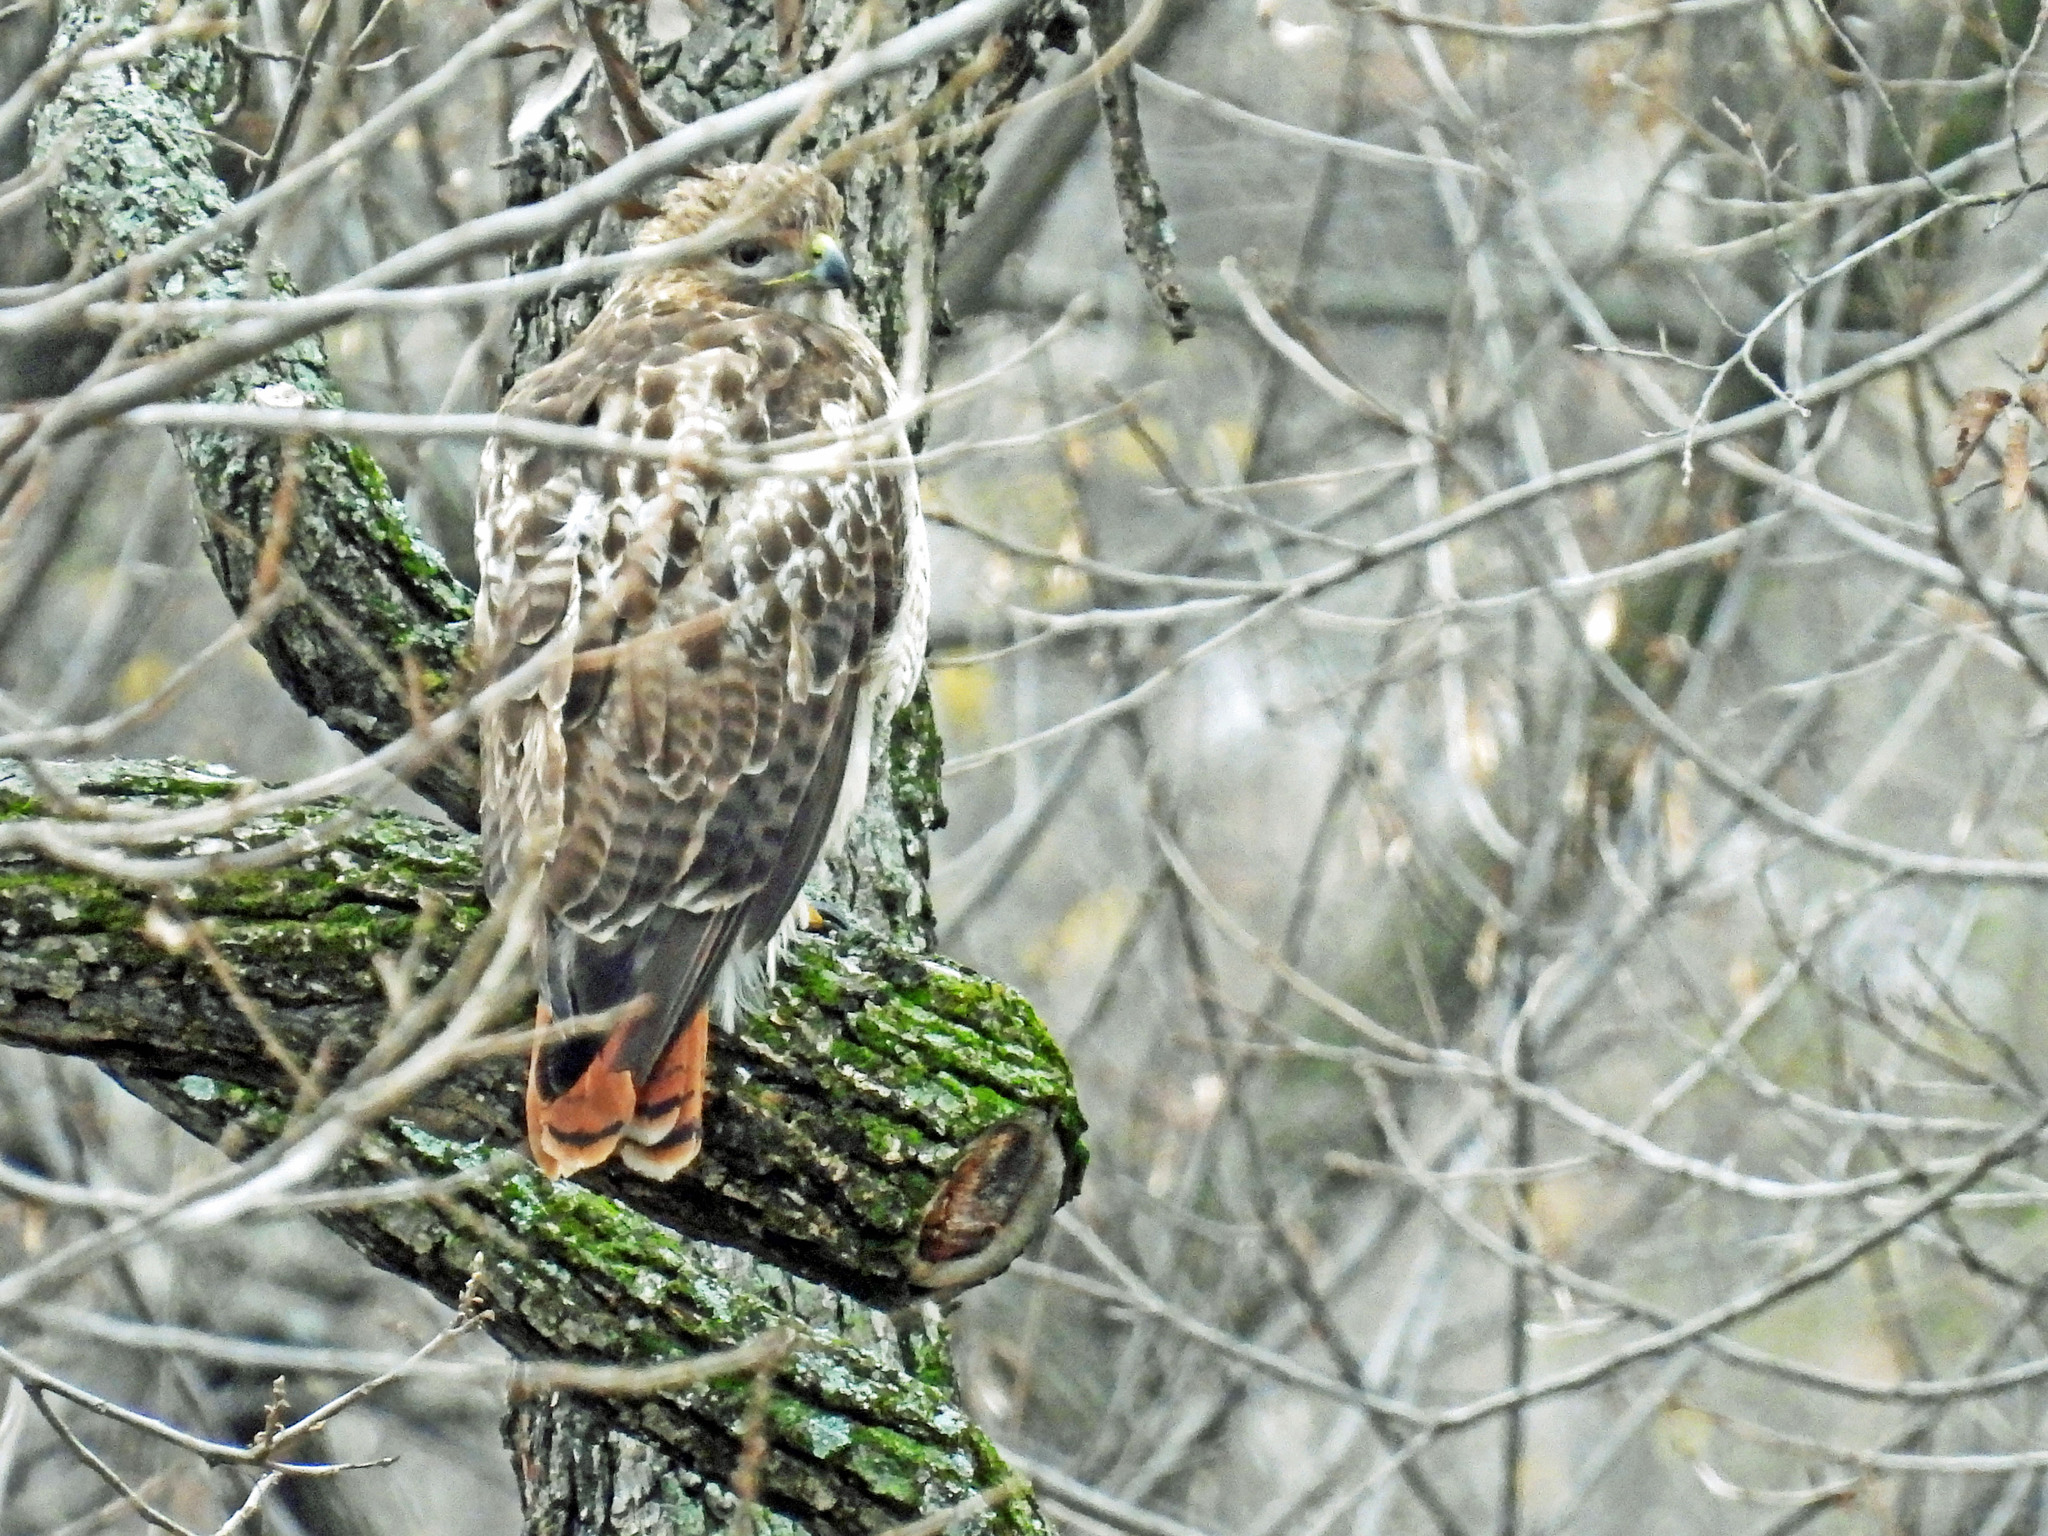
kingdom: Animalia
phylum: Chordata
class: Aves
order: Accipitriformes
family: Accipitridae
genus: Buteo
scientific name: Buteo jamaicensis
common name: Red-tailed hawk
